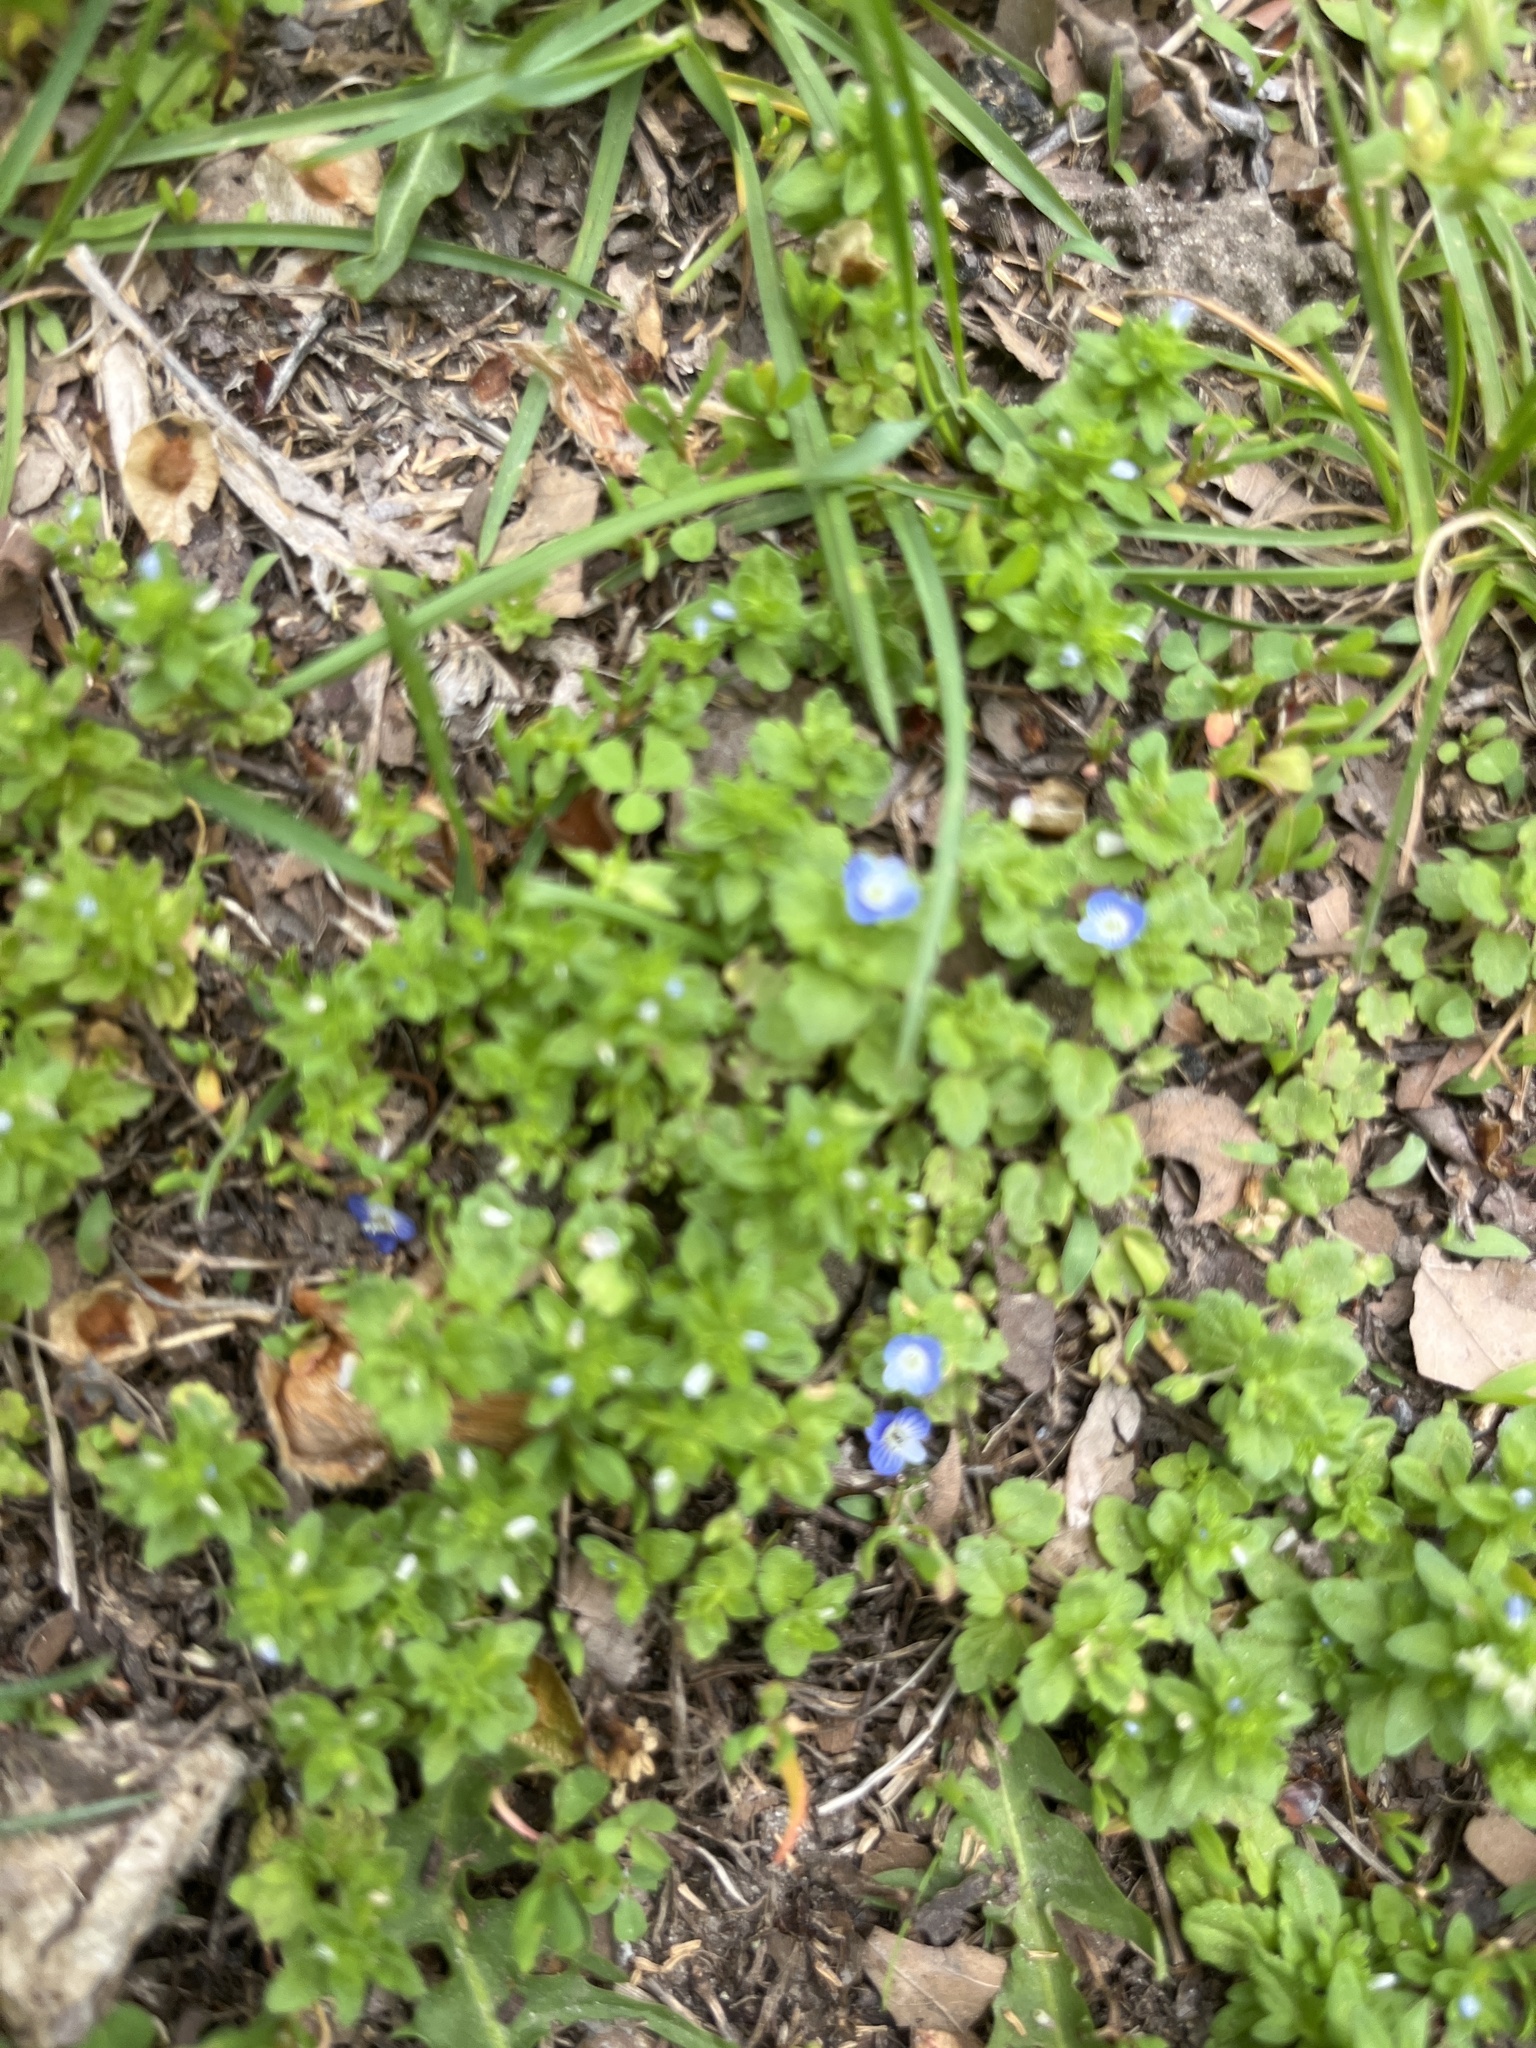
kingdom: Plantae
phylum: Tracheophyta
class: Magnoliopsida
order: Lamiales
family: Plantaginaceae
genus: Veronica
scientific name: Veronica persica
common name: Common field-speedwell
